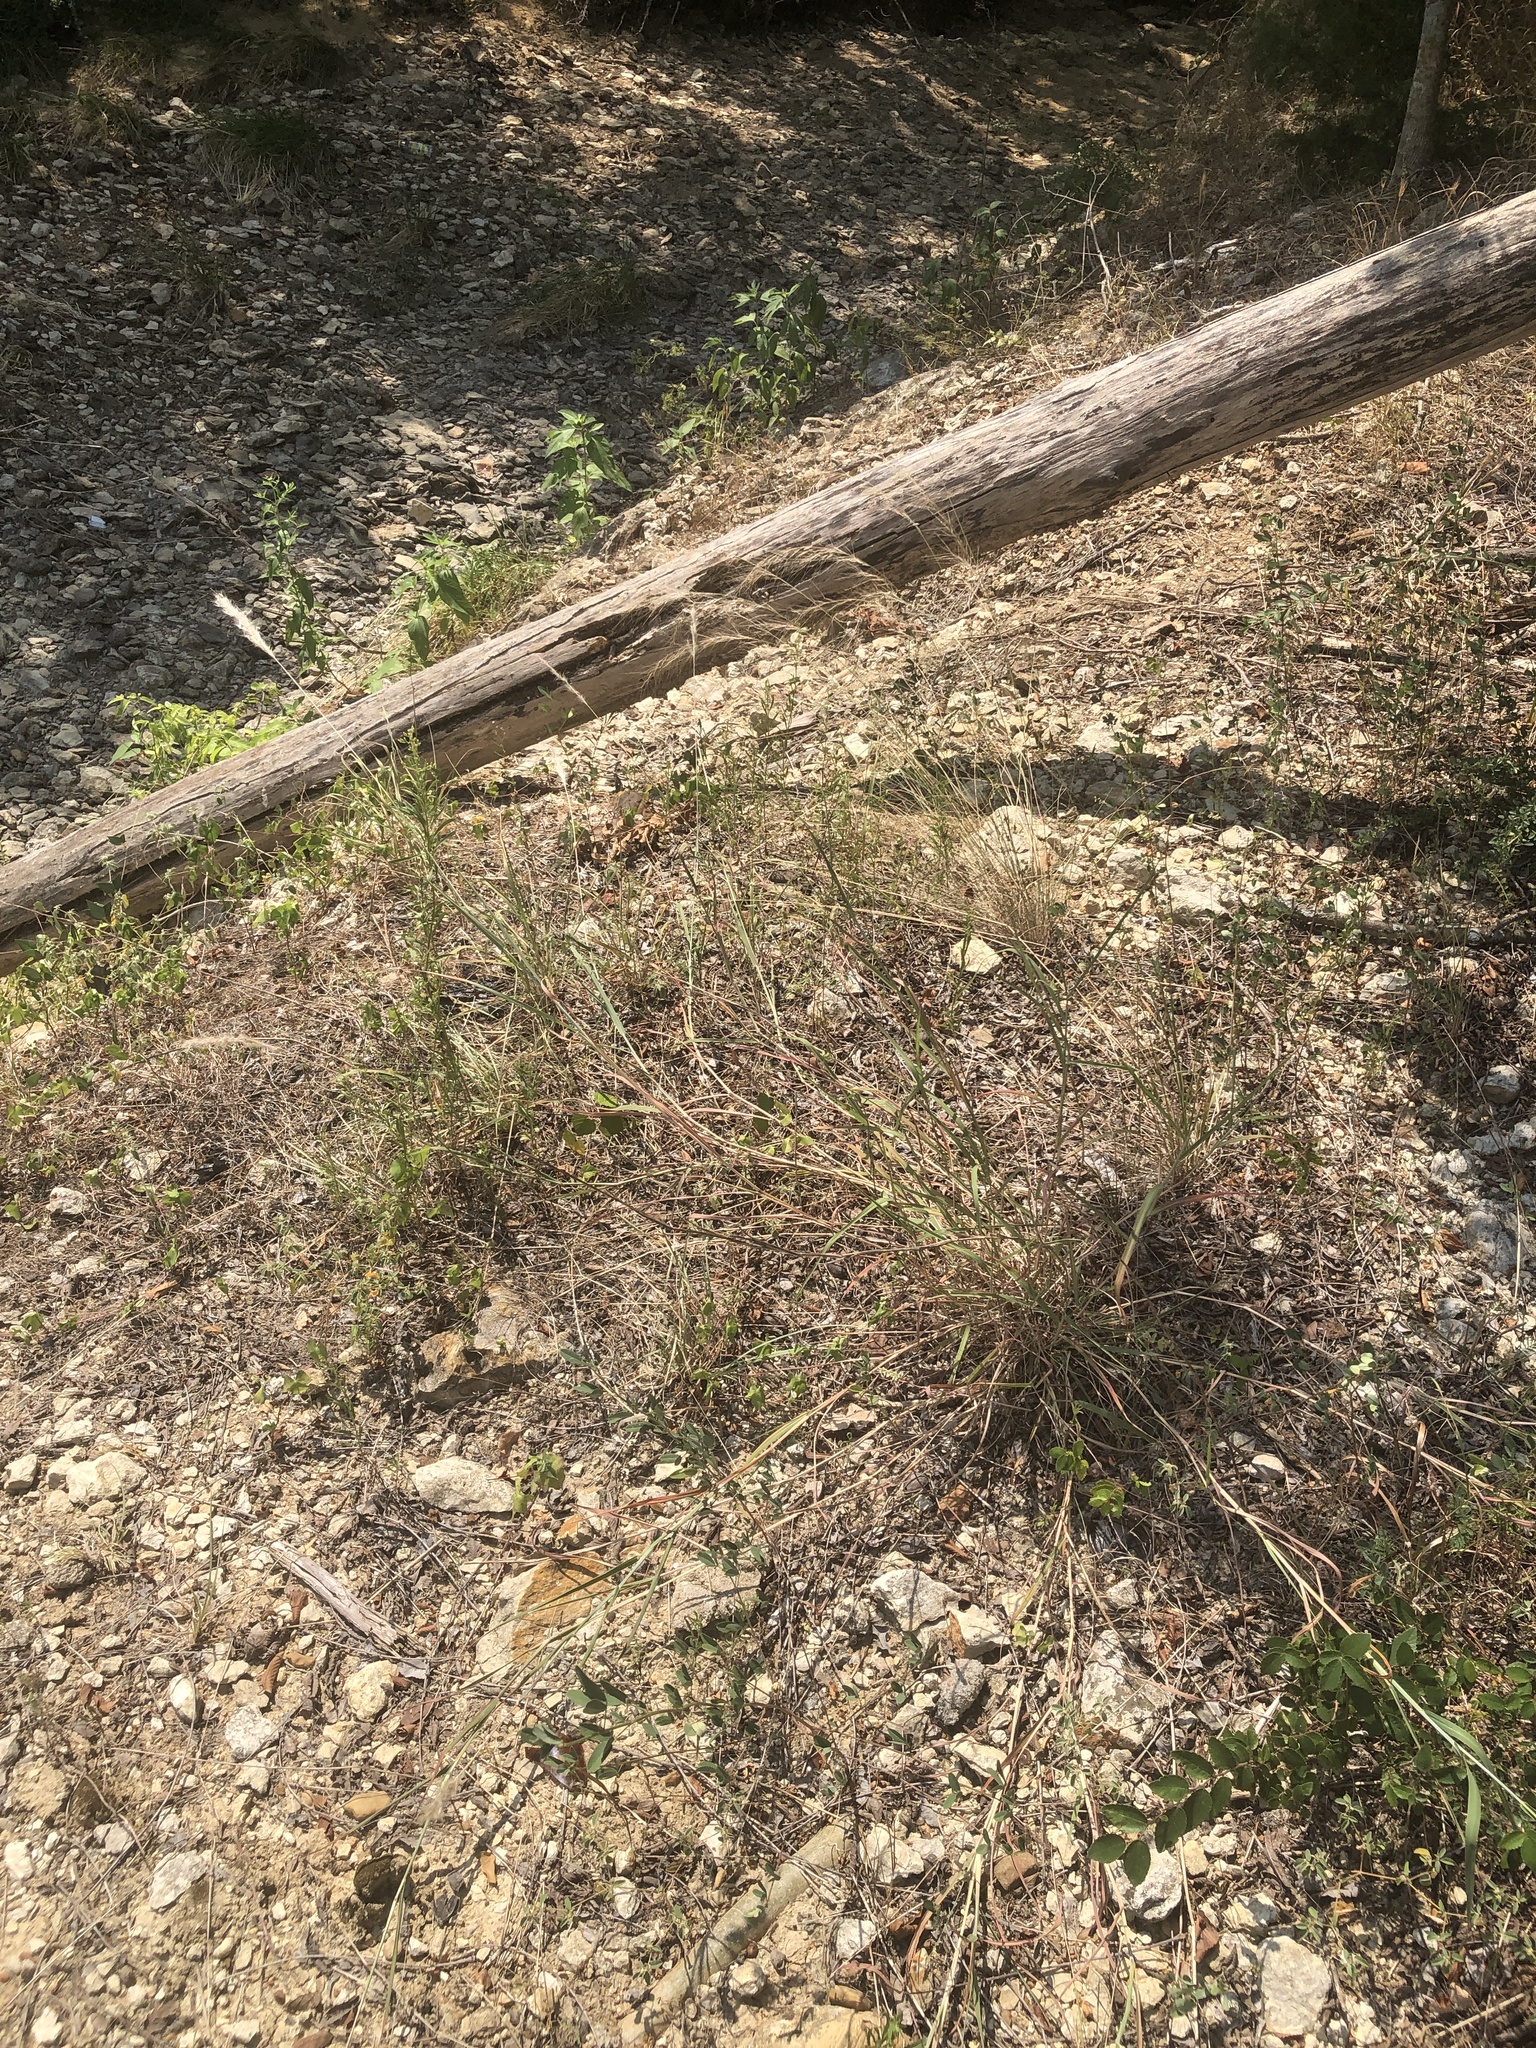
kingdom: Plantae
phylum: Tracheophyta
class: Liliopsida
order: Poales
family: Poaceae
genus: Bothriochloa
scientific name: Bothriochloa torreyana
